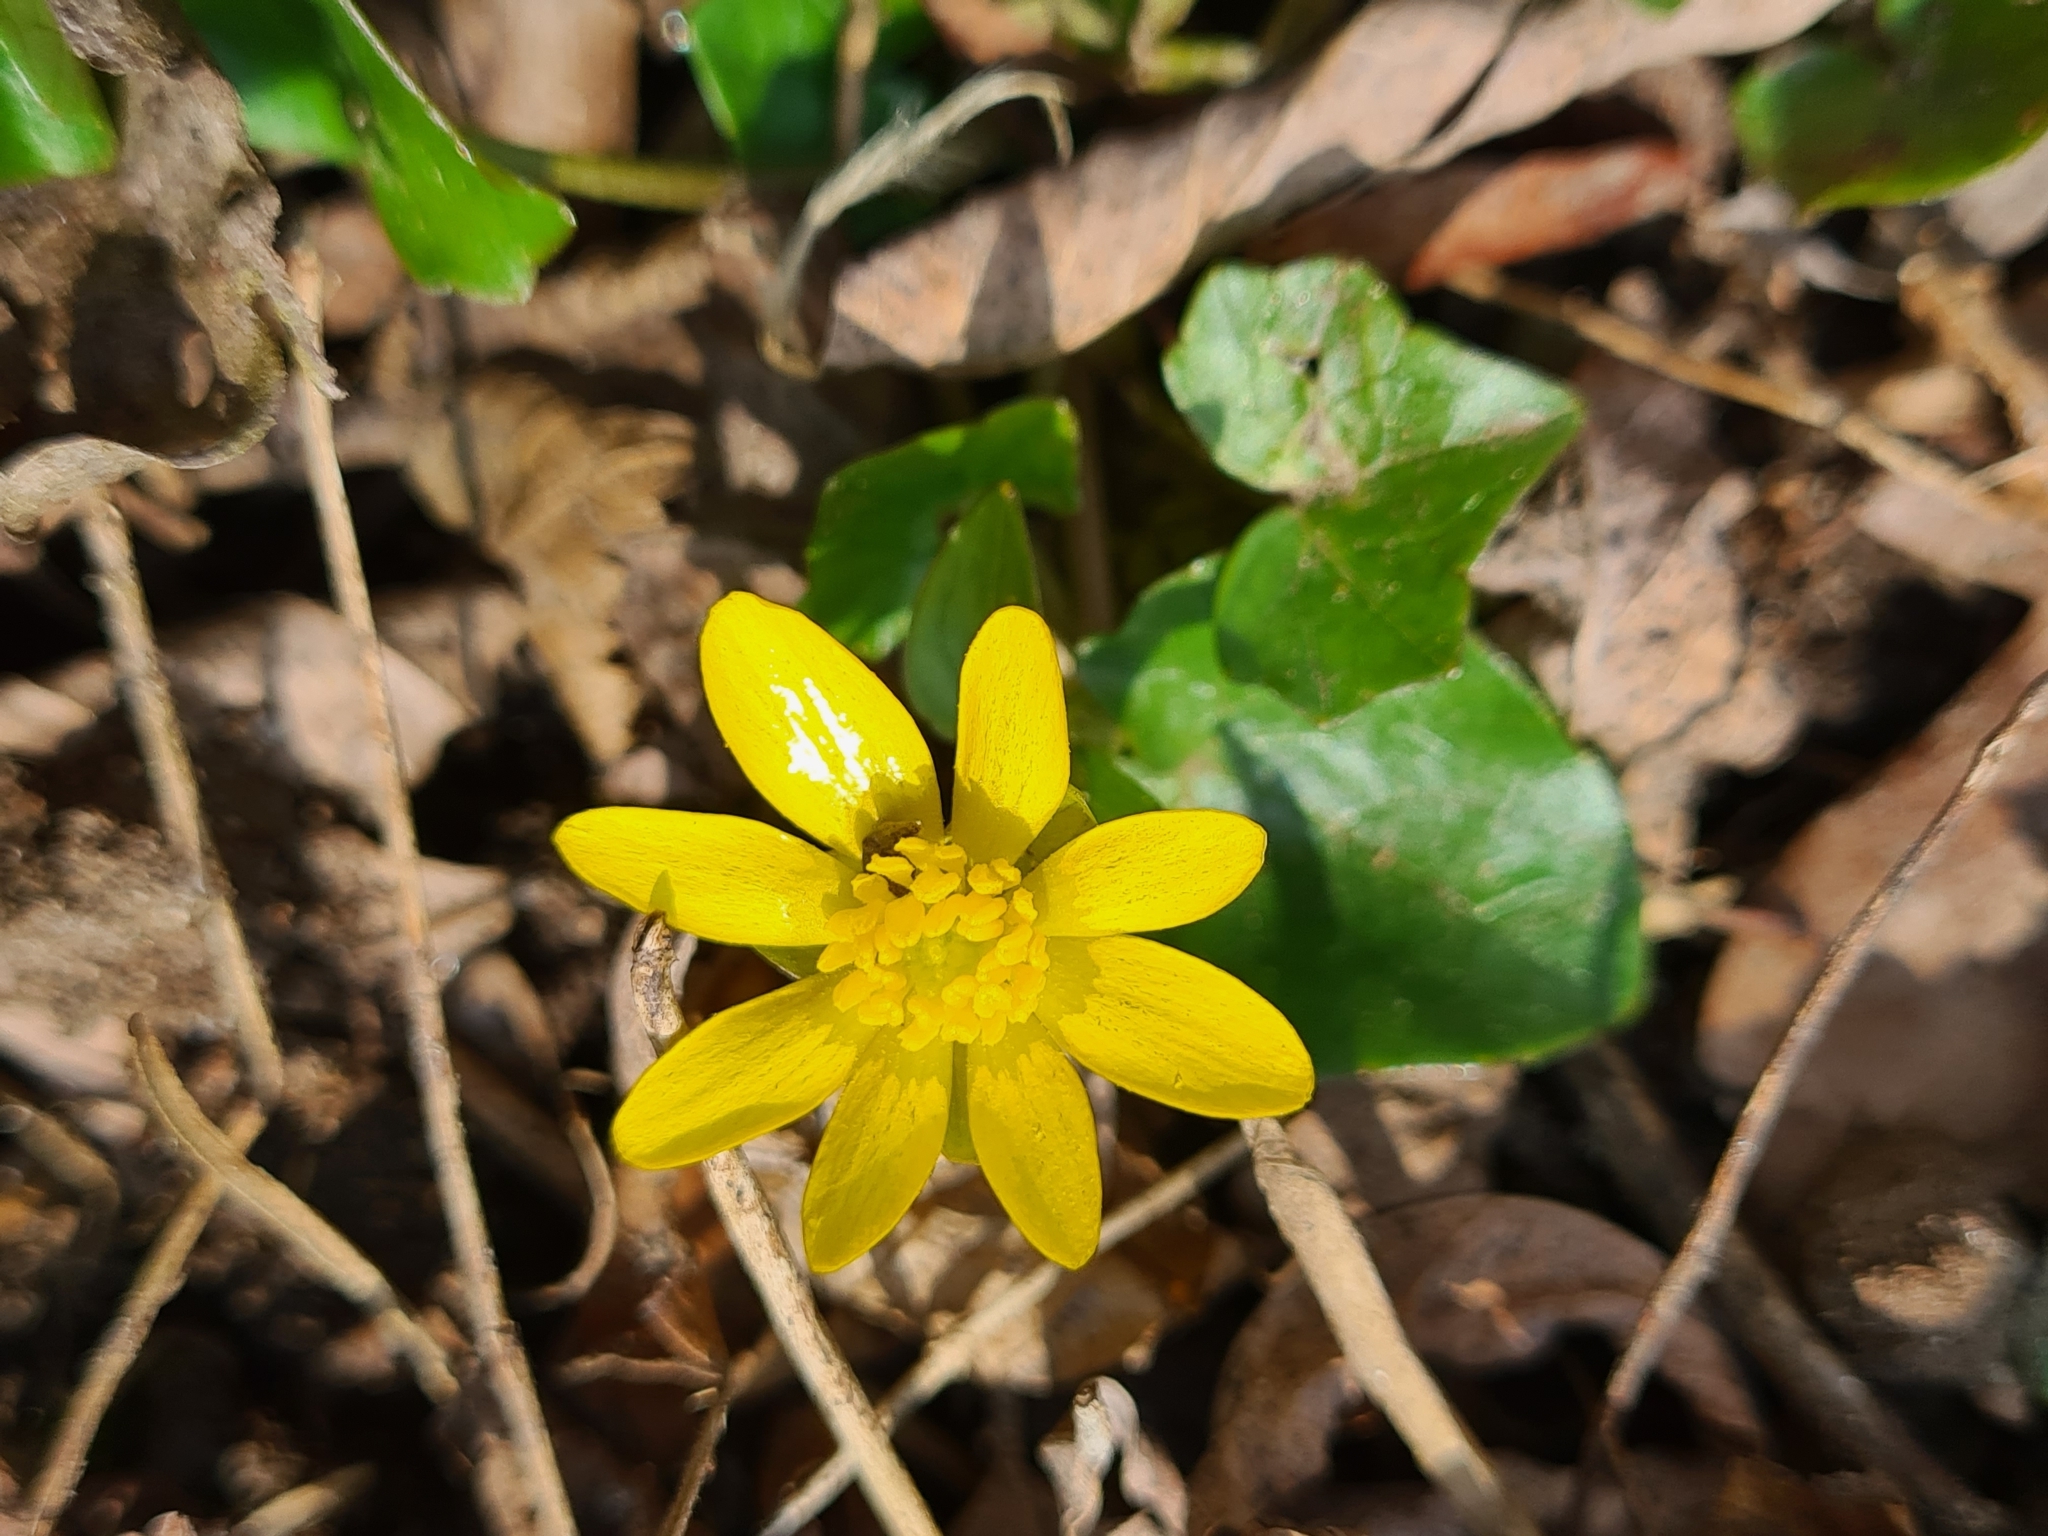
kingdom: Plantae
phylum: Tracheophyta
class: Magnoliopsida
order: Ranunculales
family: Ranunculaceae
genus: Ficaria
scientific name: Ficaria verna
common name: Lesser celandine
